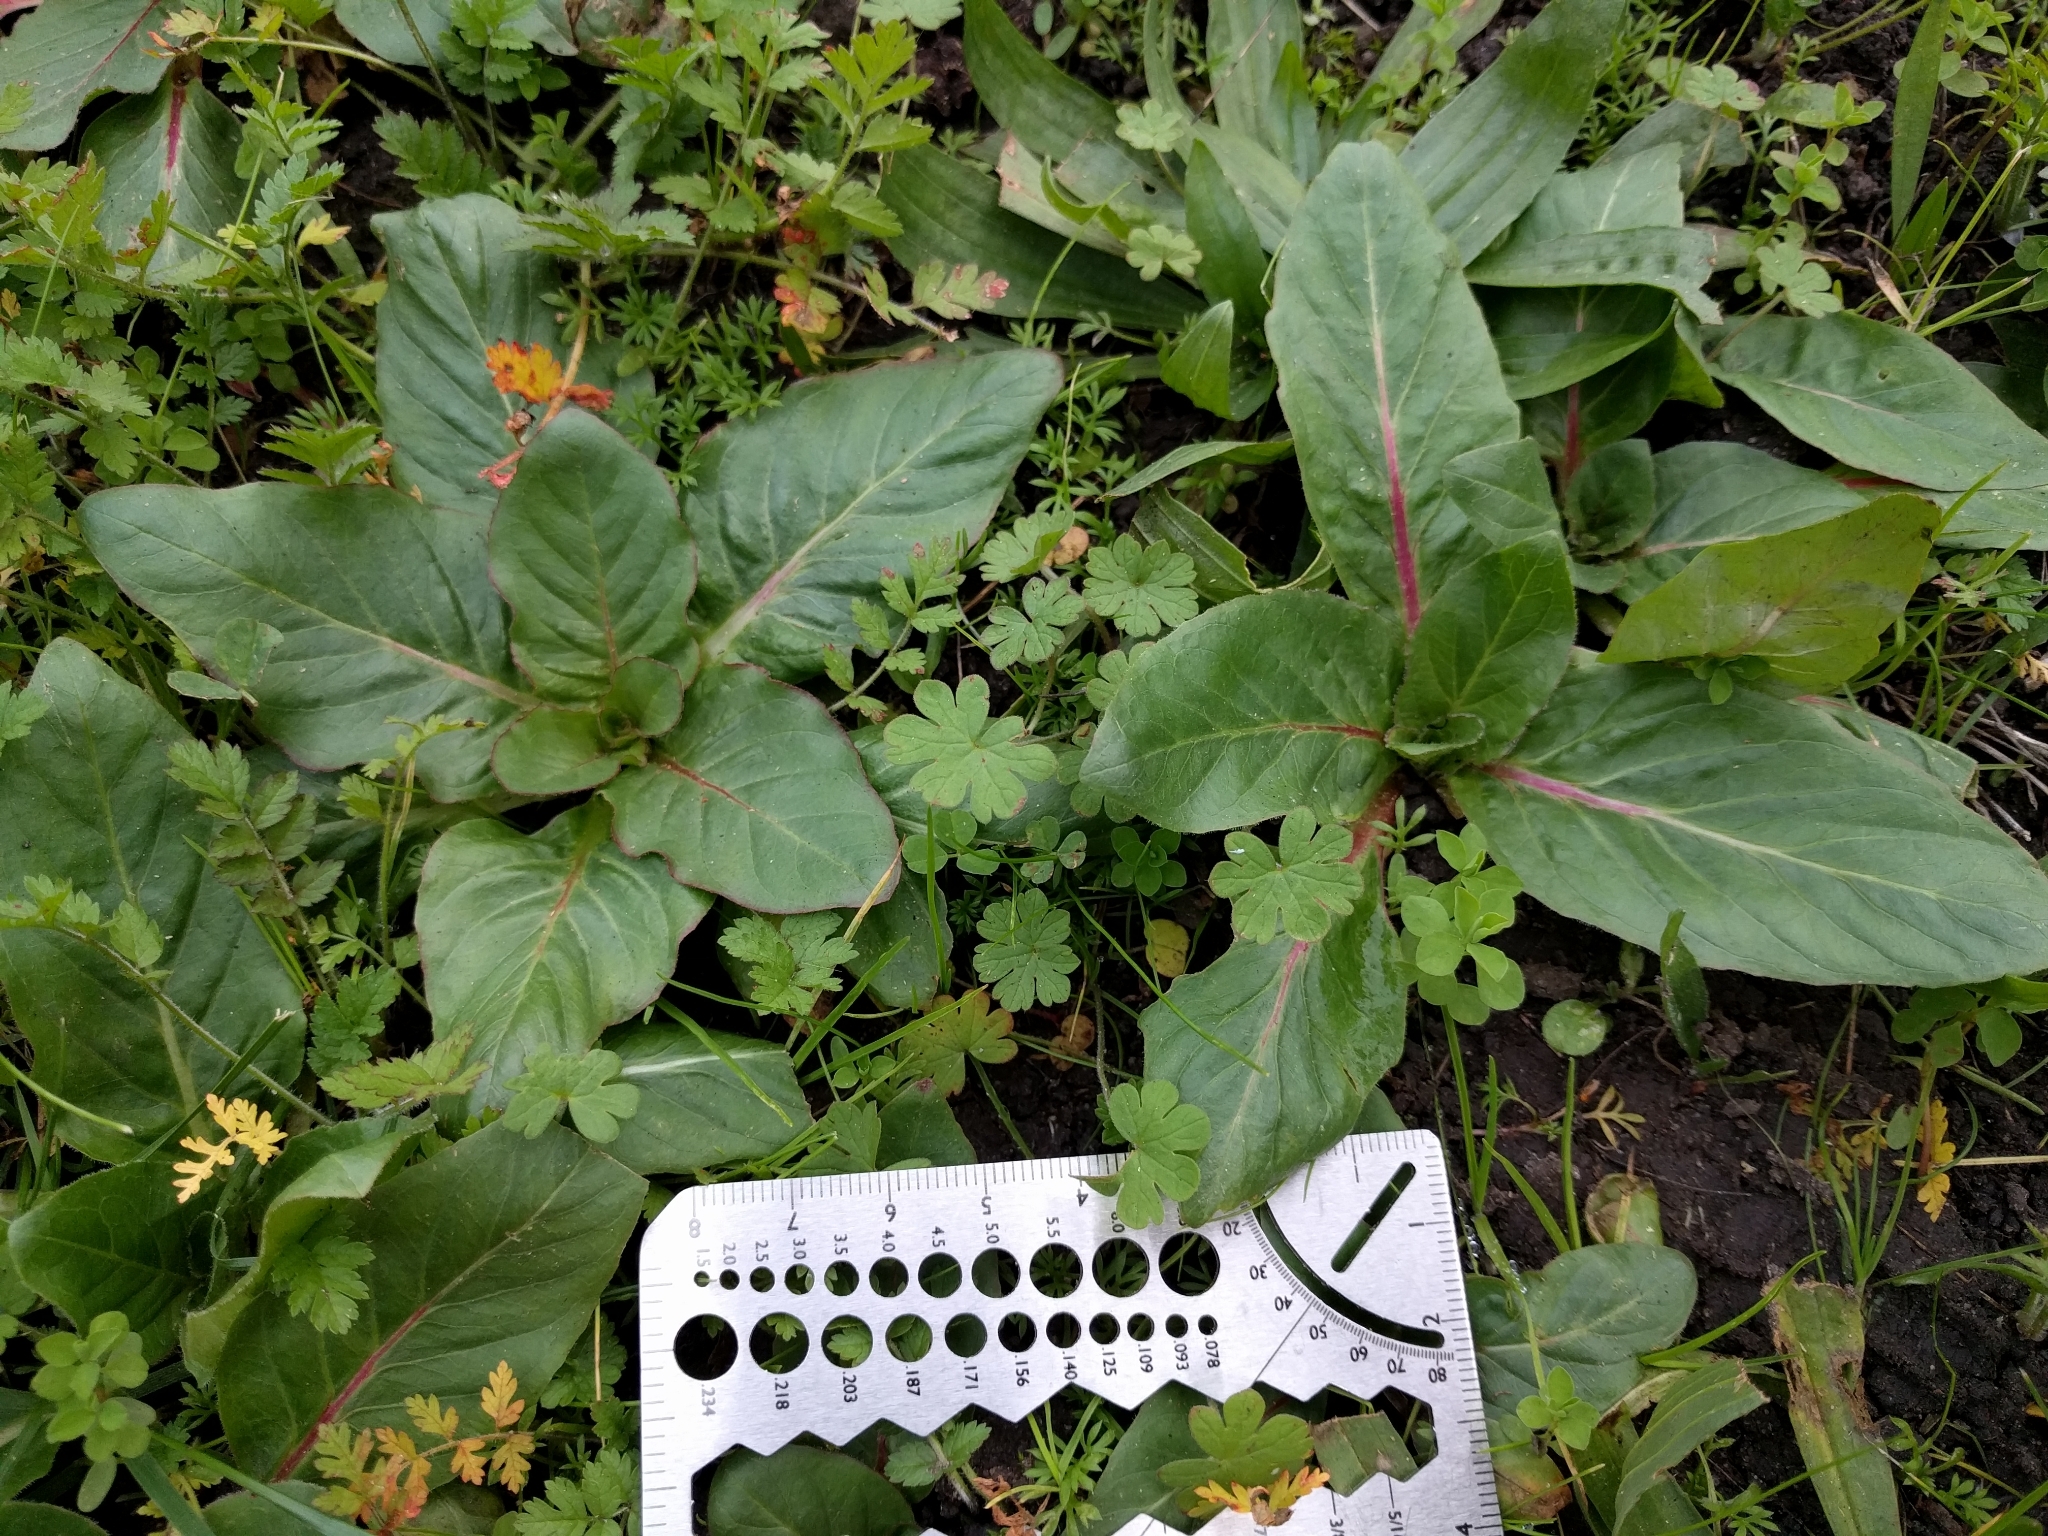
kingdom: Plantae
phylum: Tracheophyta
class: Magnoliopsida
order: Myrtales
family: Onagraceae
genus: Taraxia
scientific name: Taraxia ovata
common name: Goldeneggs
